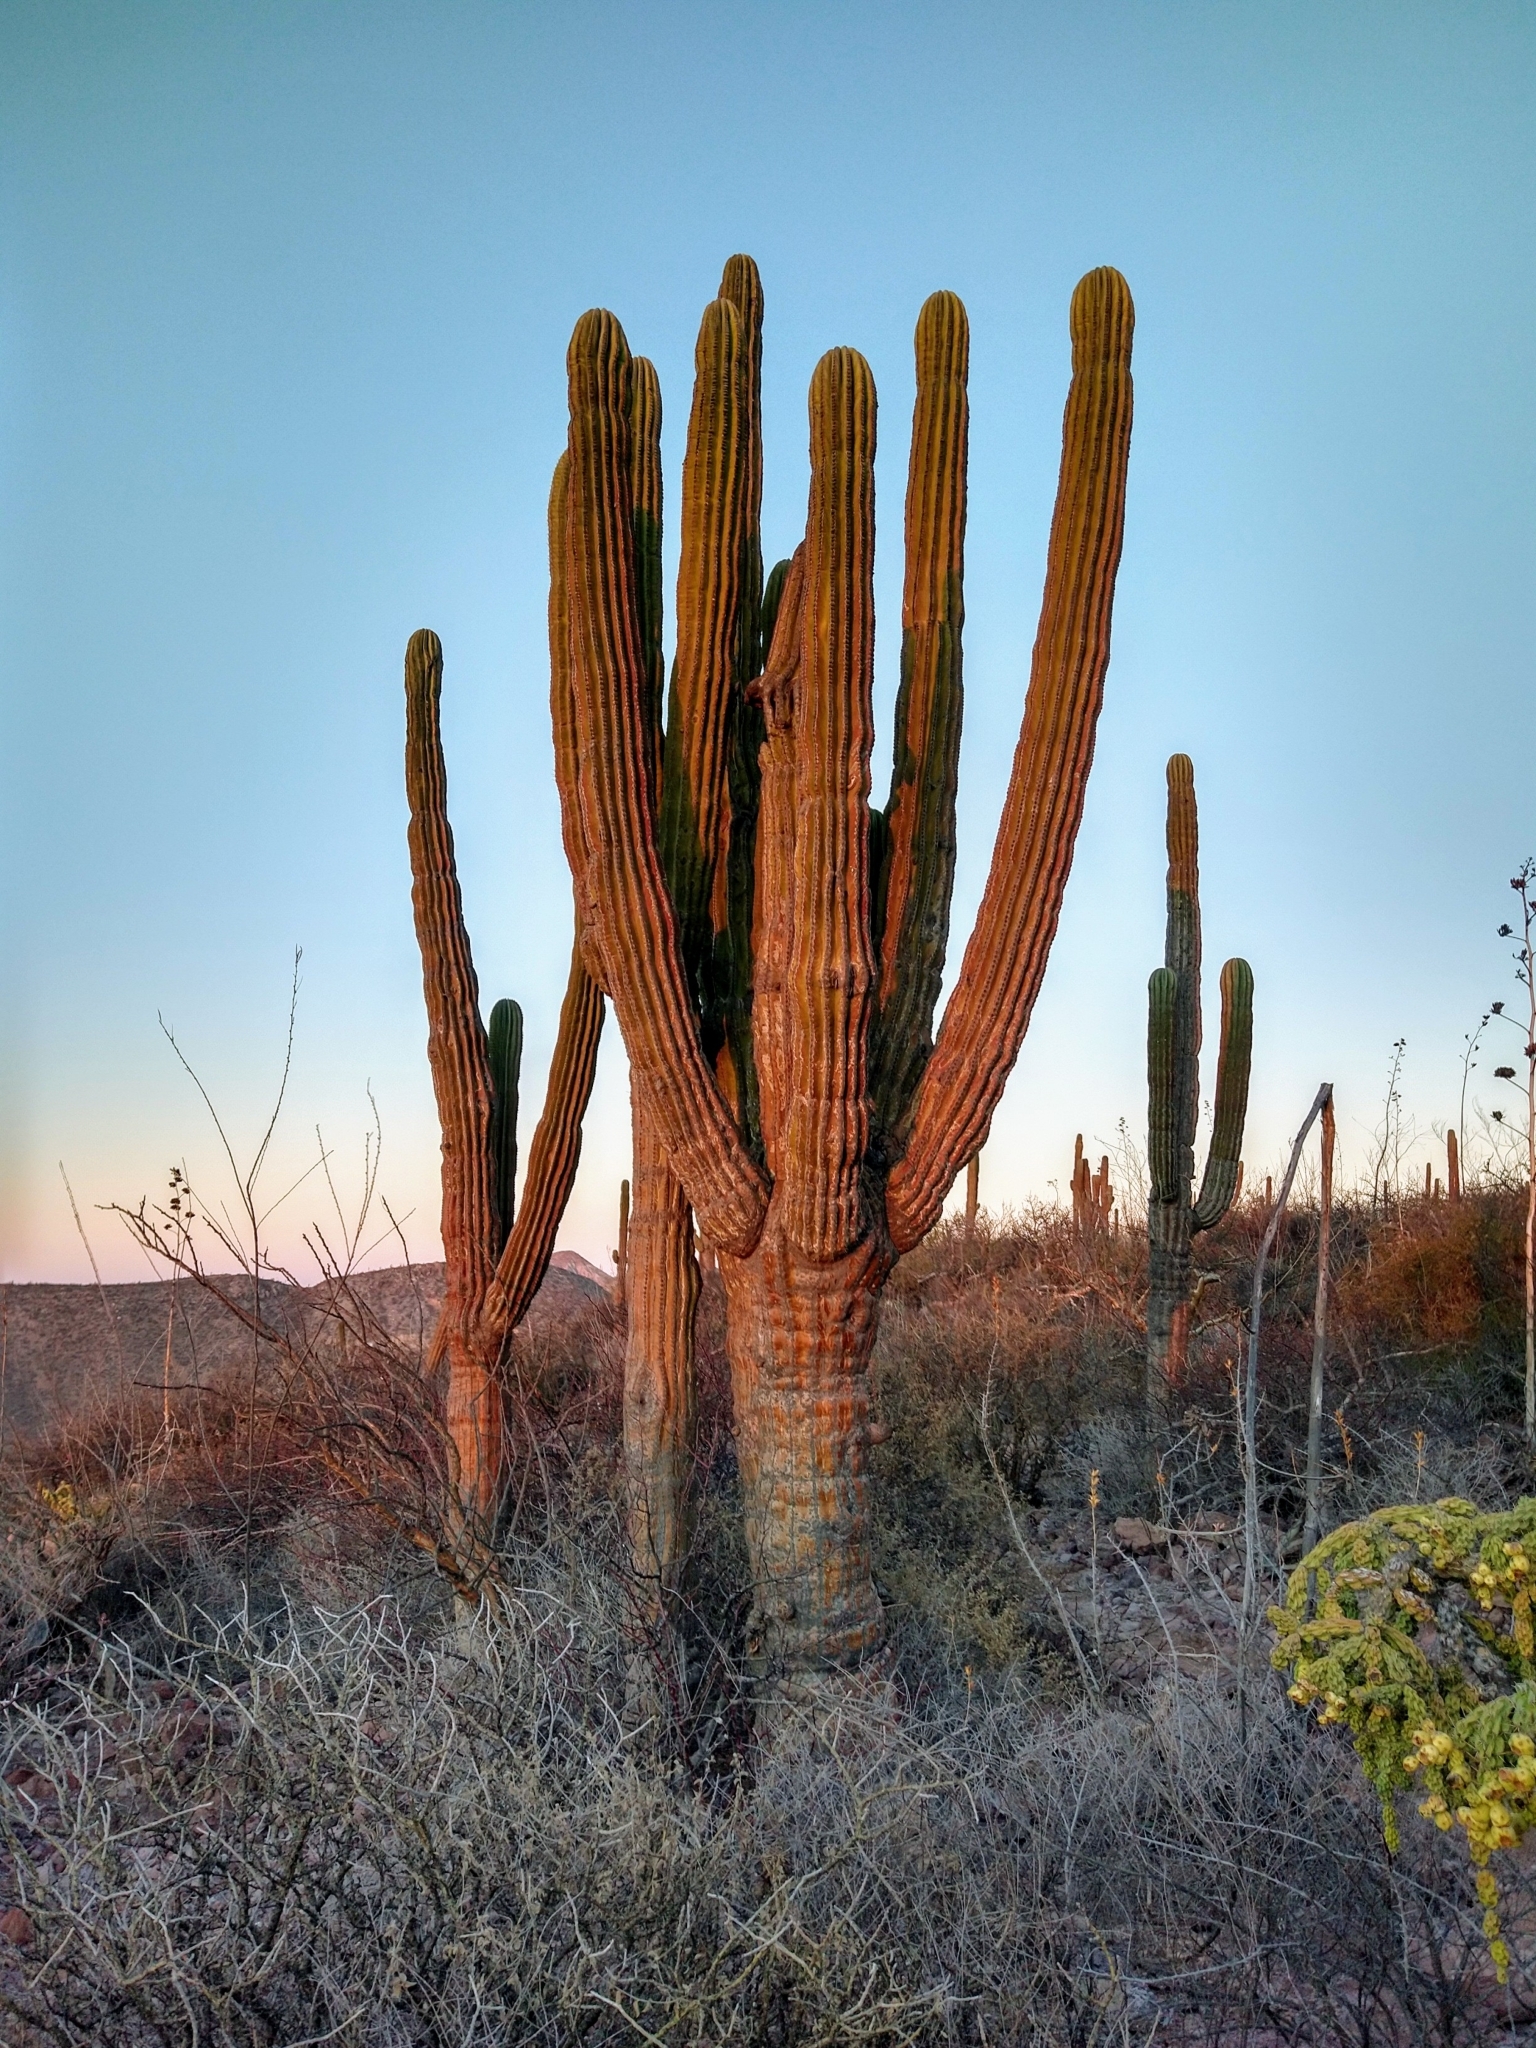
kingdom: Plantae
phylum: Tracheophyta
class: Magnoliopsida
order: Caryophyllales
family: Cactaceae
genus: Pachycereus
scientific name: Pachycereus pringlei
